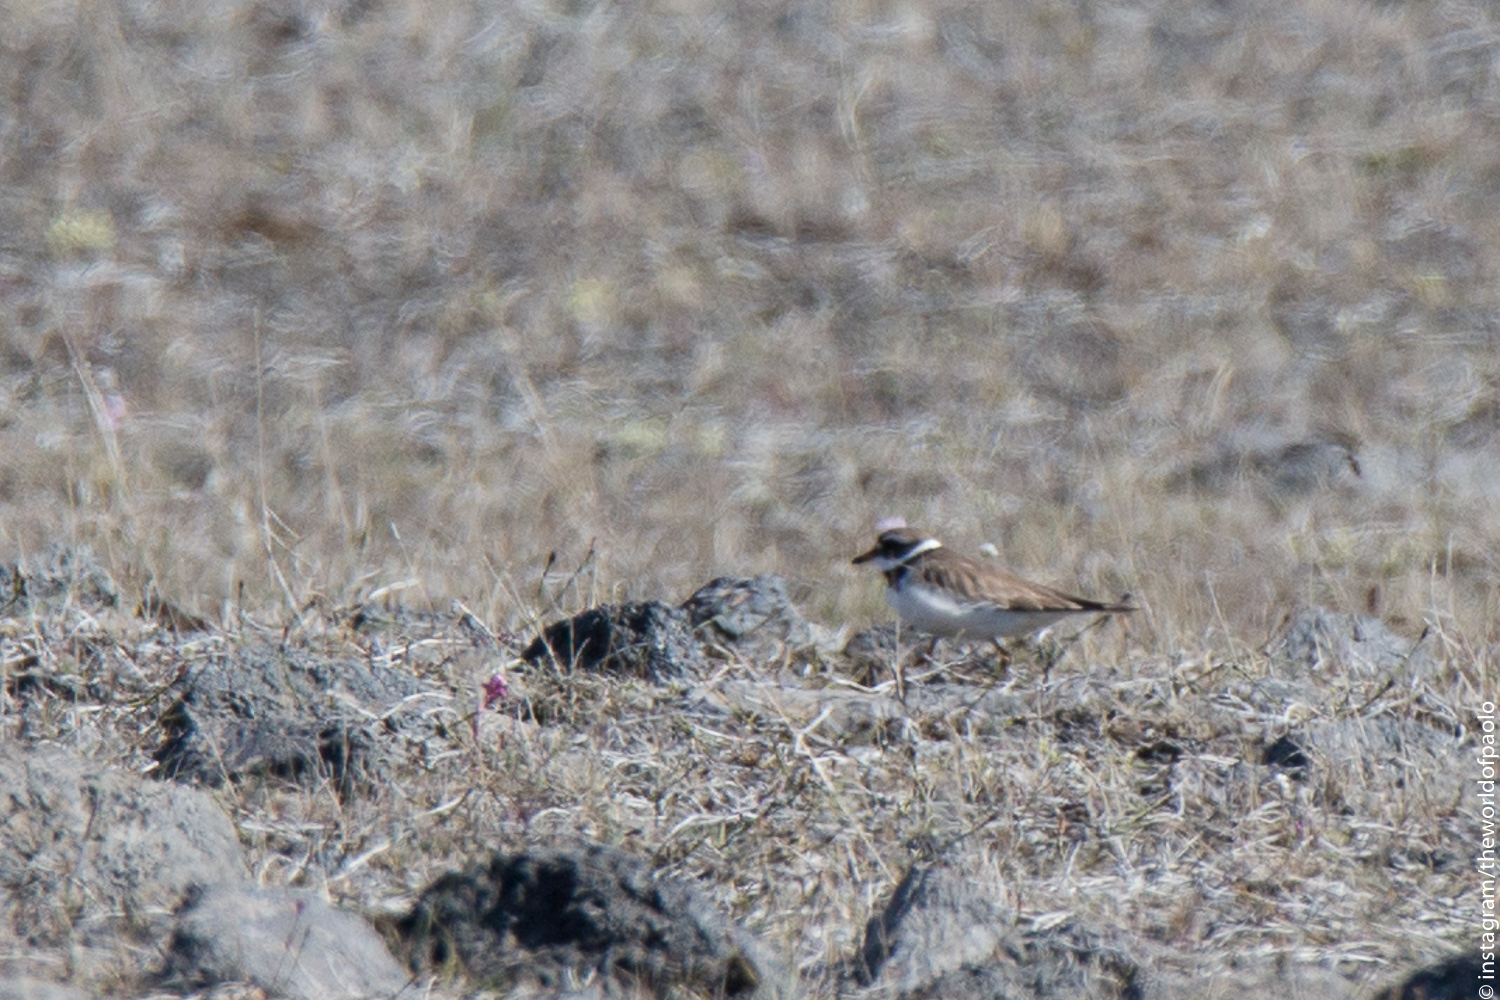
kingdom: Animalia
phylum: Chordata
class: Aves
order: Charadriiformes
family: Charadriidae
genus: Charadrius
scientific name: Charadrius hiaticula
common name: Common ringed plover
